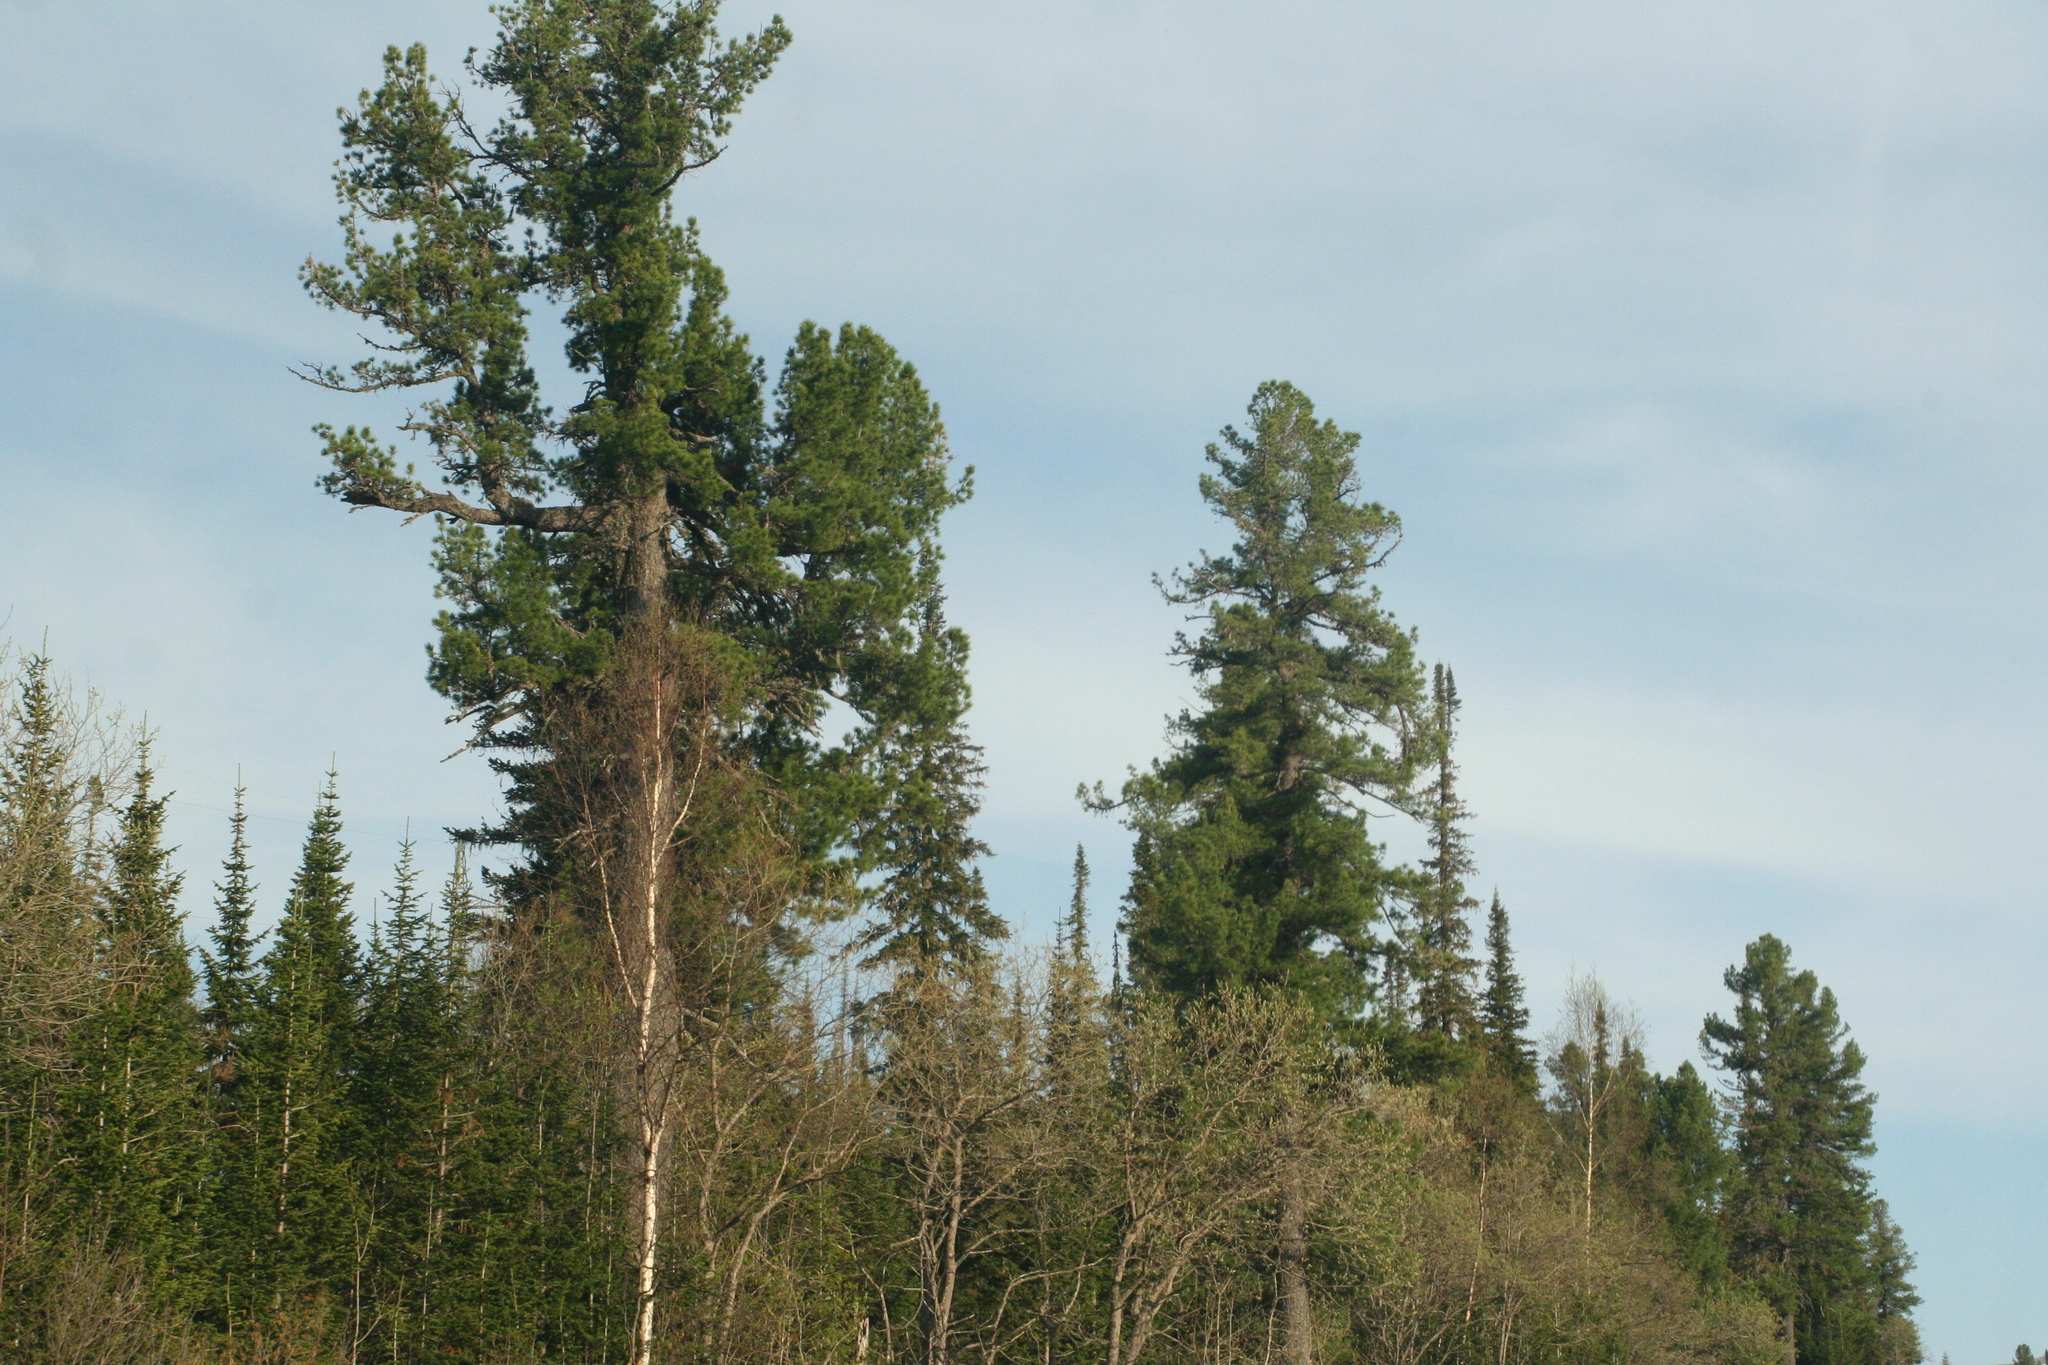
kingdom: Plantae
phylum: Tracheophyta
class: Pinopsida
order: Pinales
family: Pinaceae
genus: Pinus
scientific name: Pinus sibirica
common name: Siberian pine
